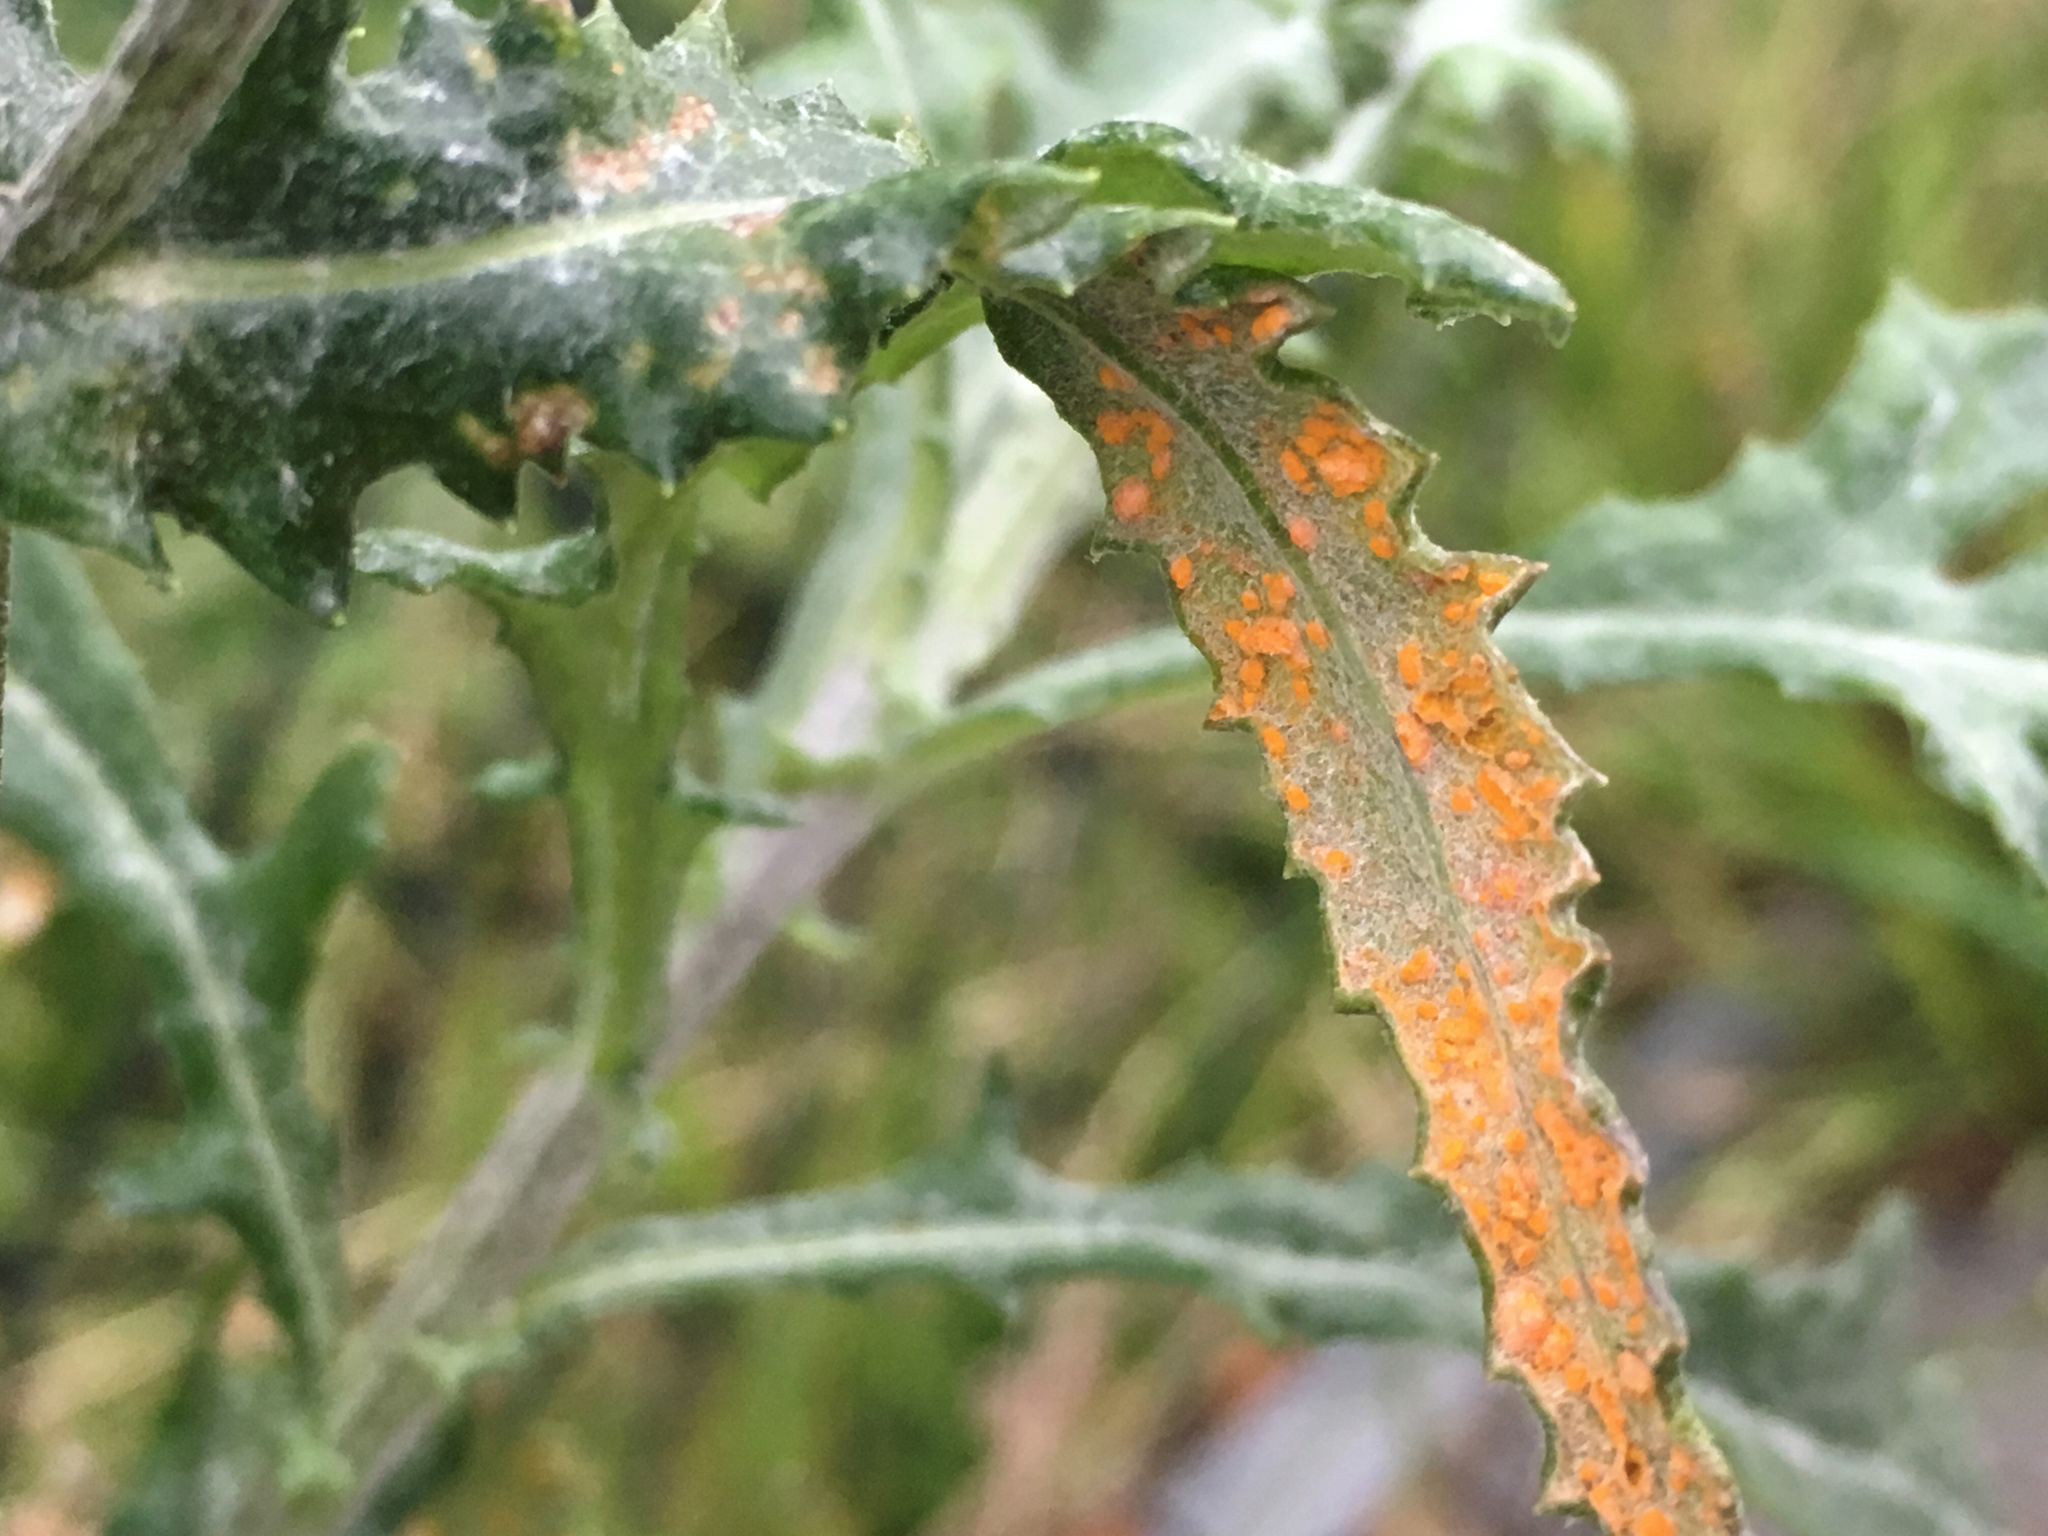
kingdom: Fungi
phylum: Basidiomycota
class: Pucciniomycetes
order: Pucciniales
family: Coleosporiaceae
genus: Coleosporium
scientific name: Coleosporium tussilaginis
